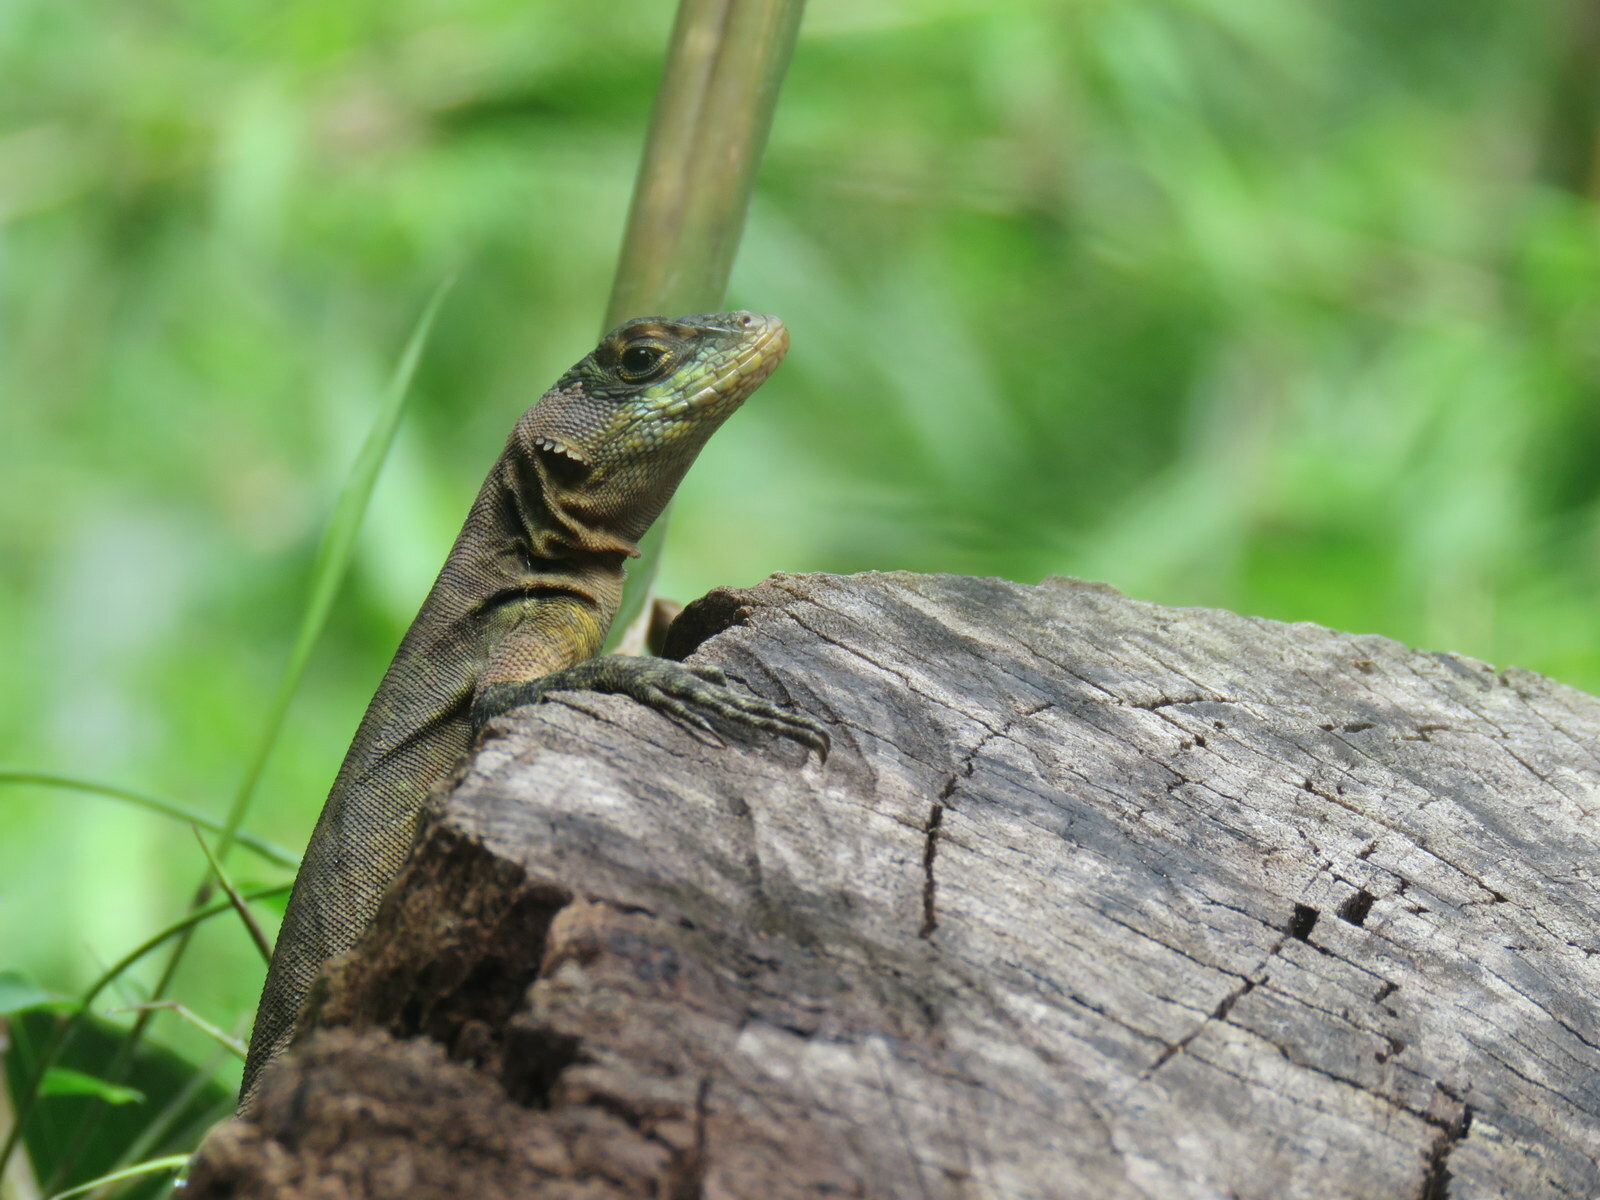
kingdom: Animalia
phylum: Chordata
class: Squamata
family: Tropiduridae
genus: Tropidurus
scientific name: Tropidurus catalanensis
